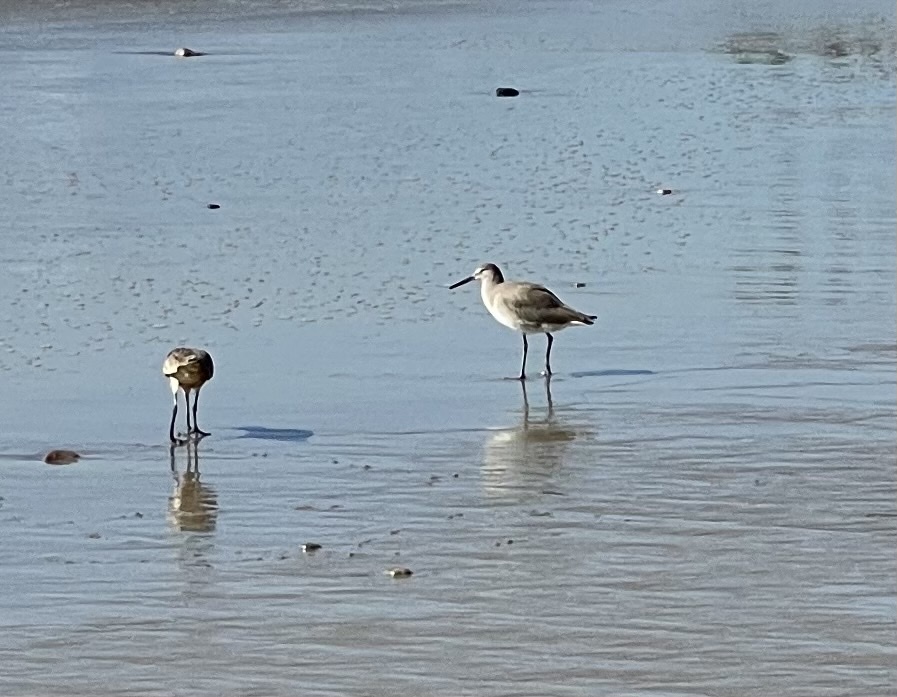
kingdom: Animalia
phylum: Chordata
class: Aves
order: Charadriiformes
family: Scolopacidae
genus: Tringa
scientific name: Tringa semipalmata
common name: Willet
